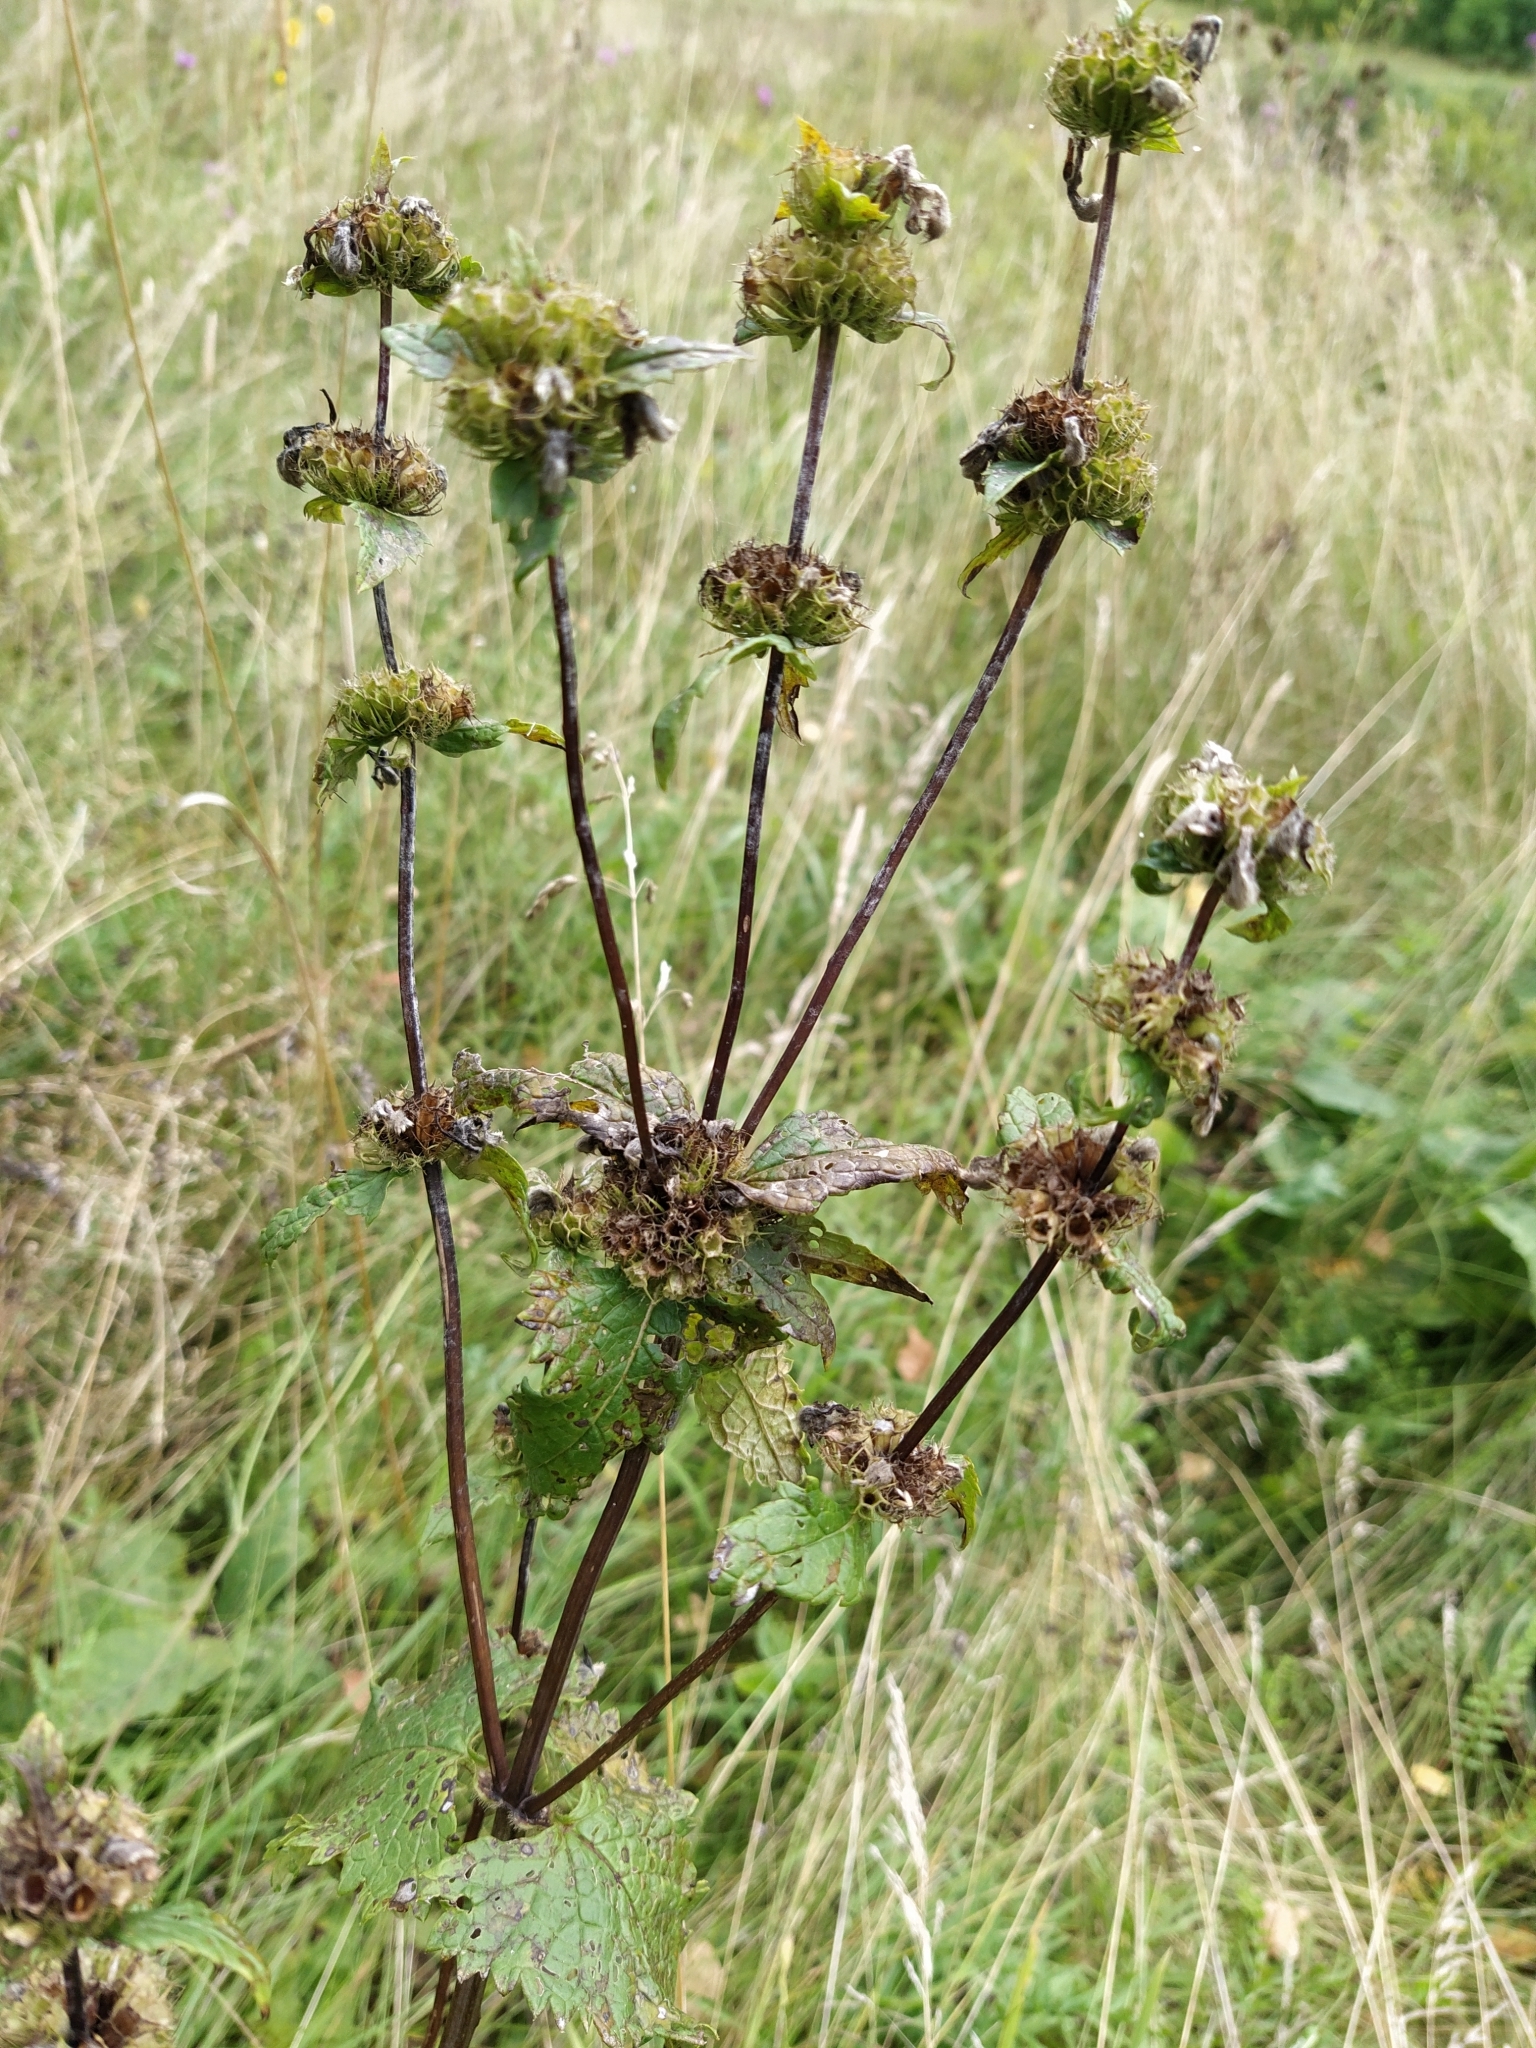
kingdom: Plantae
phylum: Tracheophyta
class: Magnoliopsida
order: Lamiales
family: Lamiaceae
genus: Phlomoides
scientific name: Phlomoides tuberosa
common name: Tuberous jerusalem sage
